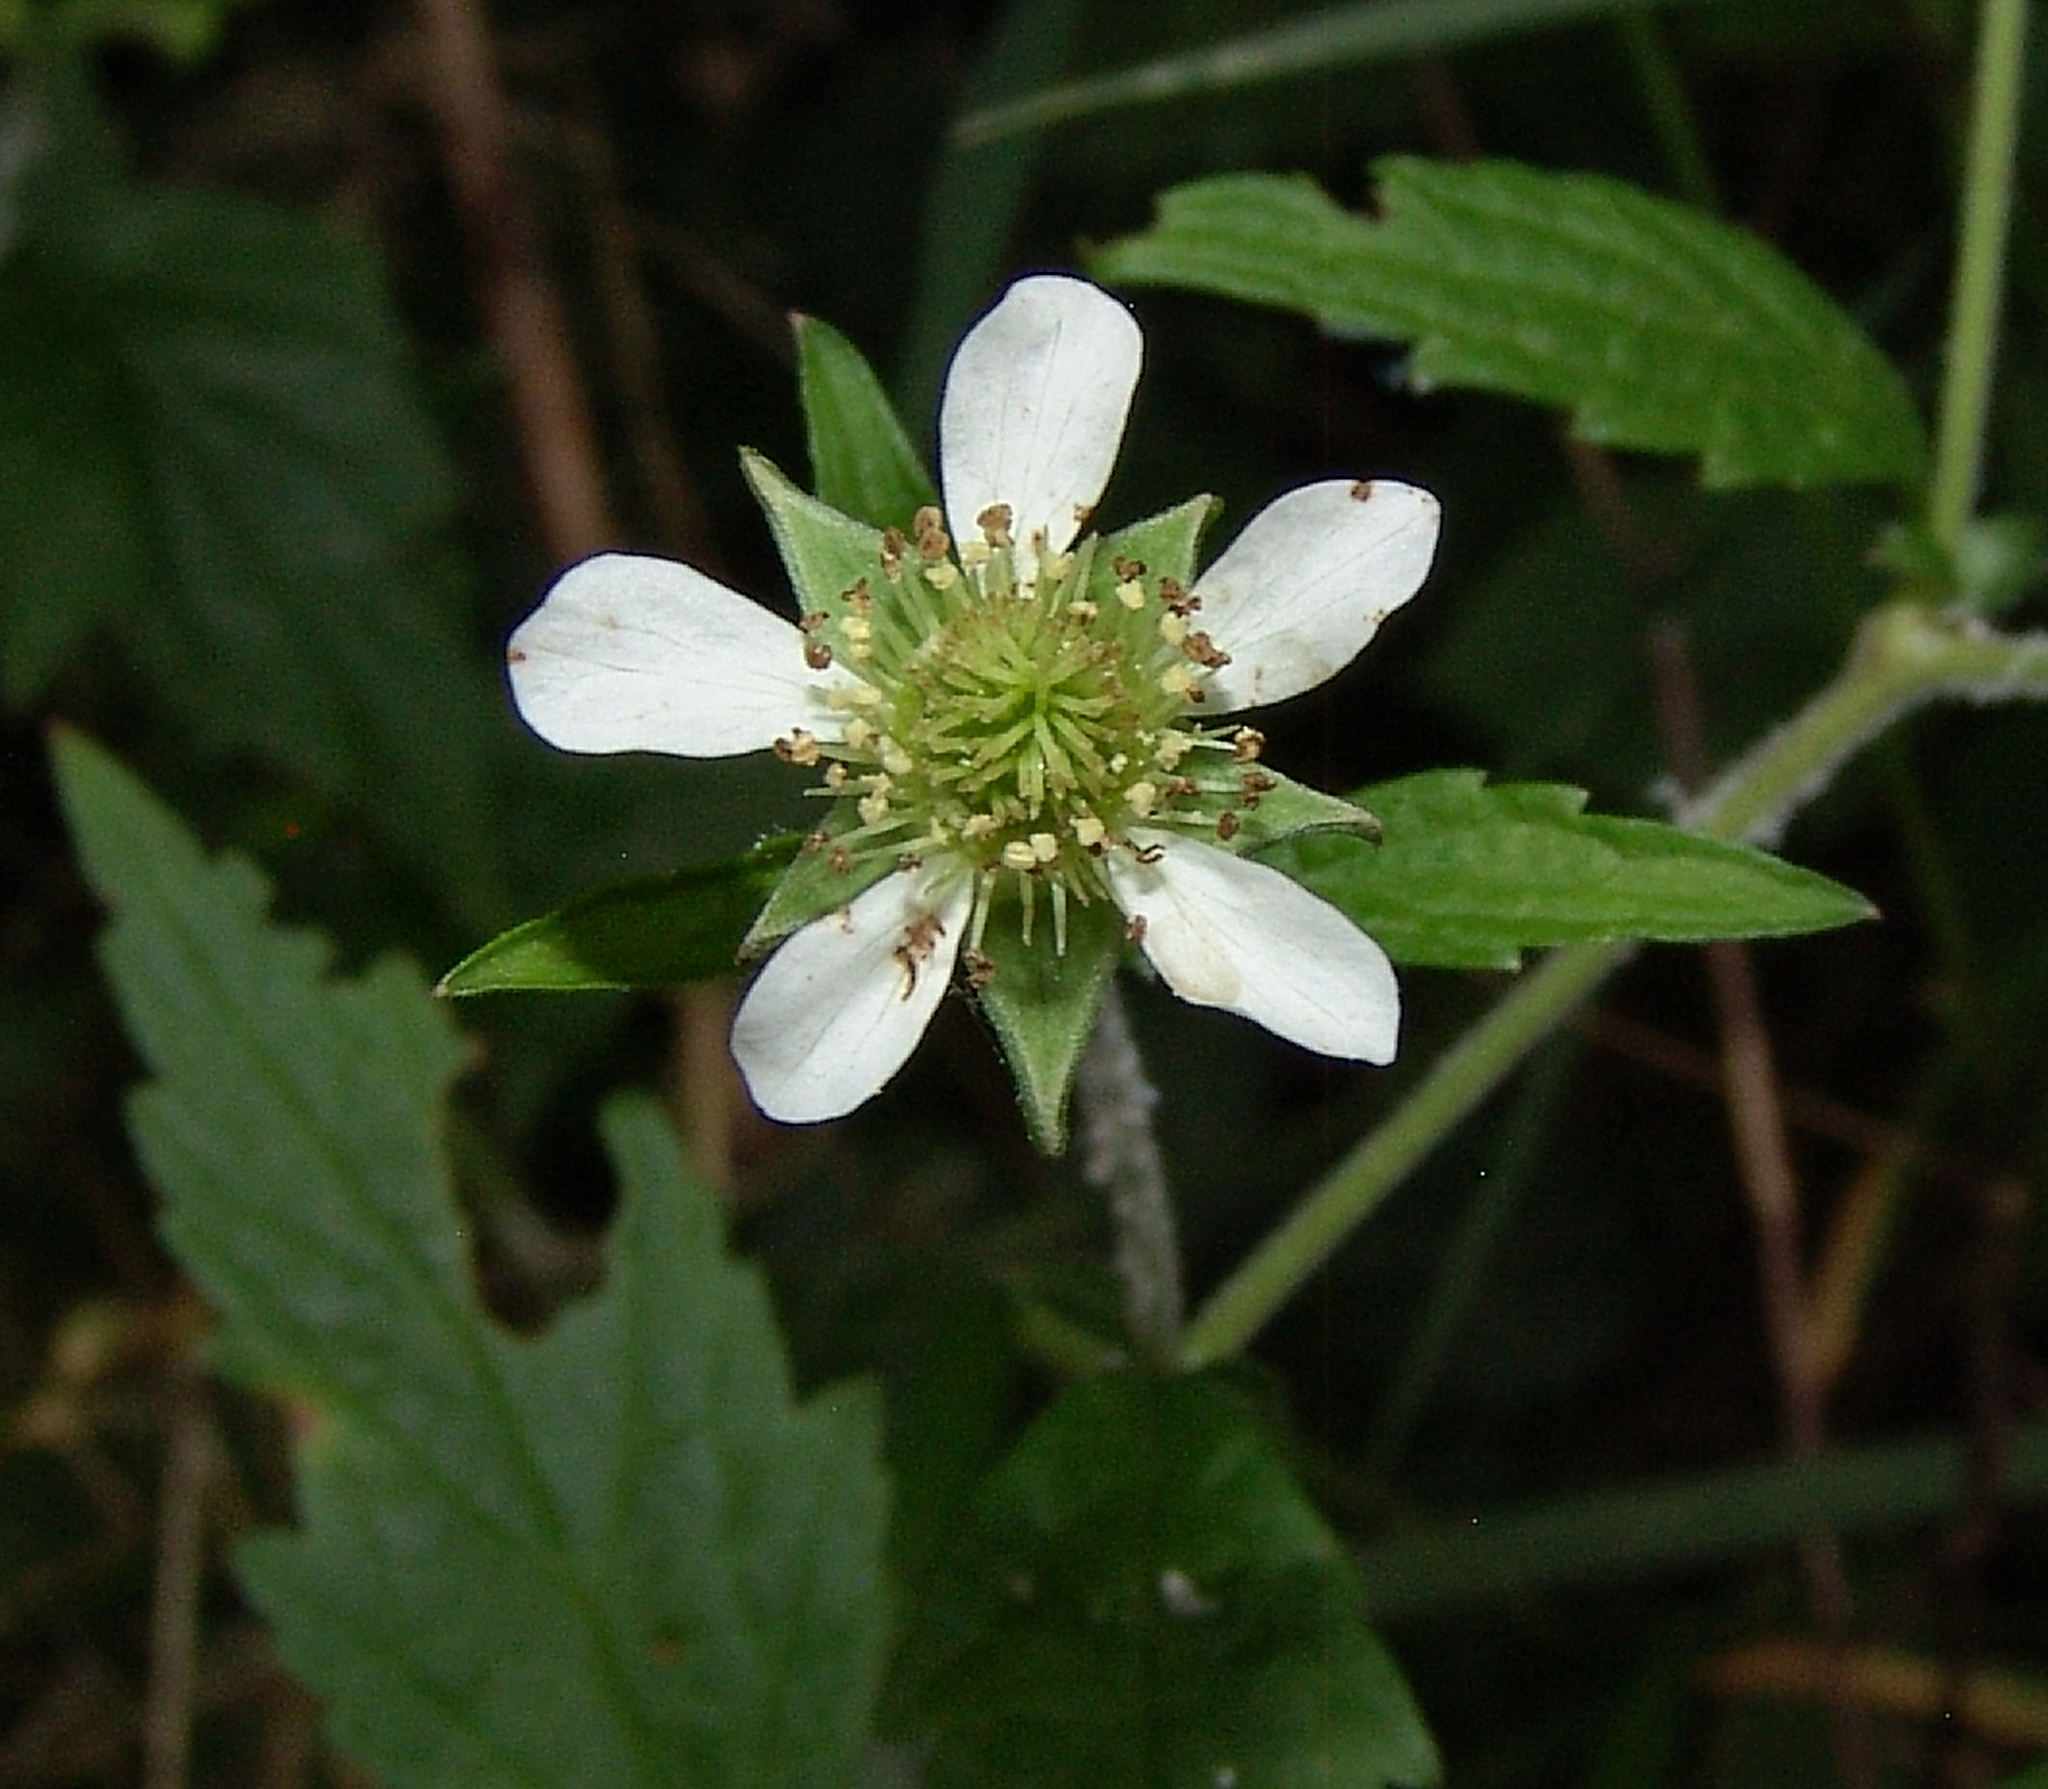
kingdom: Plantae
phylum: Tracheophyta
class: Magnoliopsida
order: Rosales
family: Rosaceae
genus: Geum
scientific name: Geum canadense
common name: White avens
